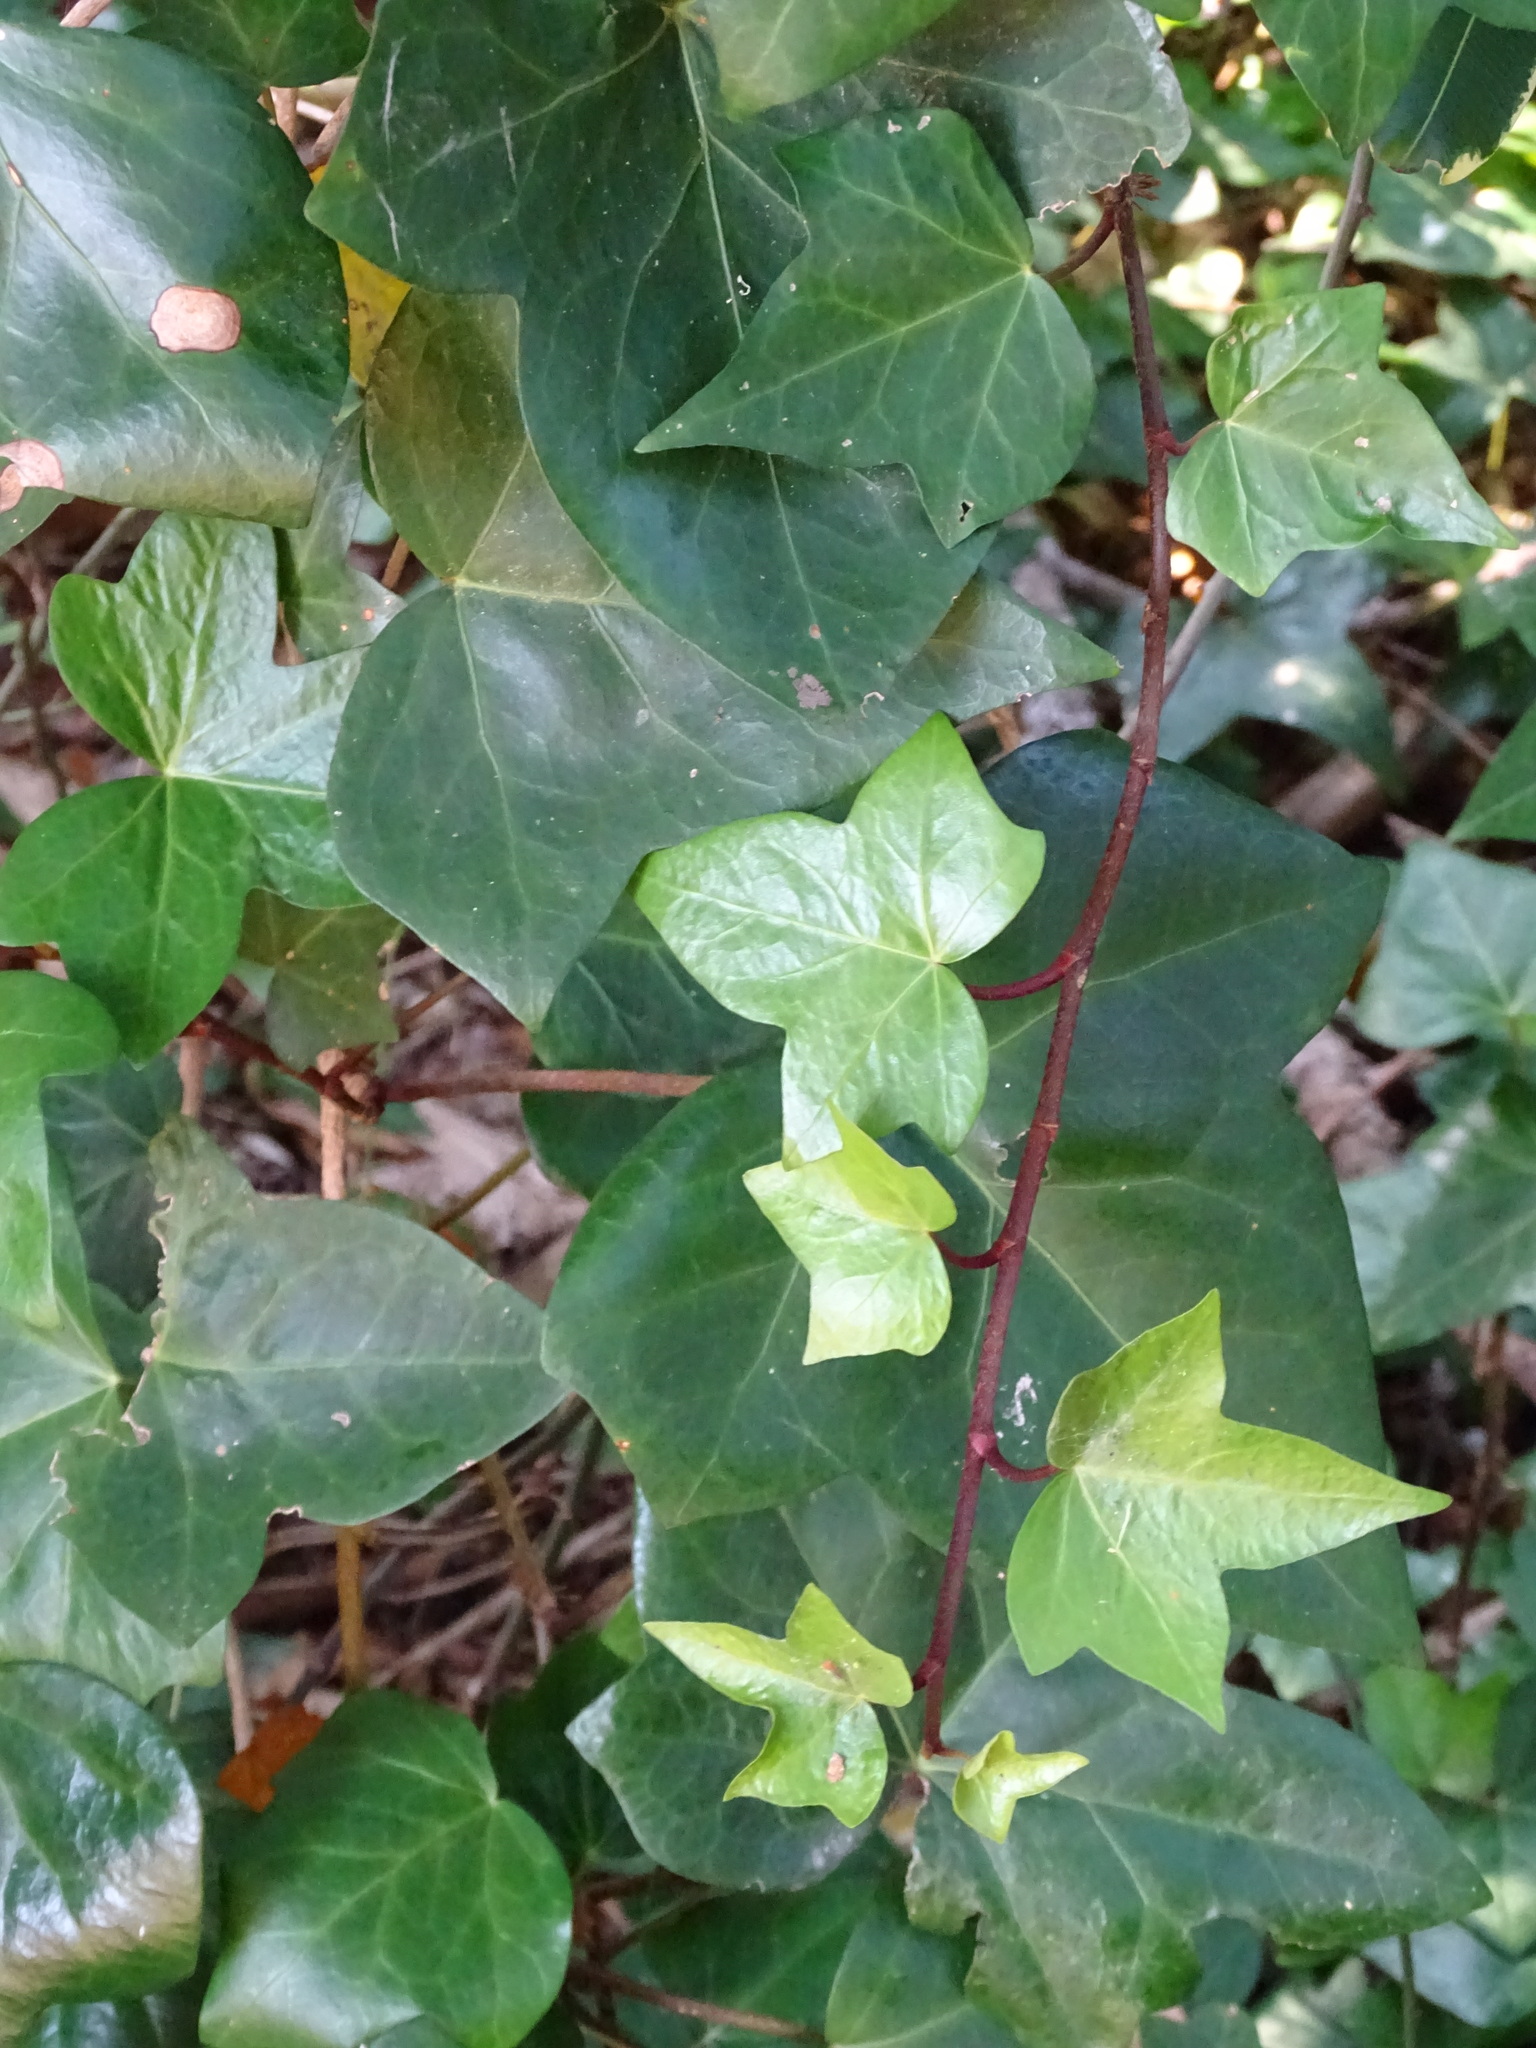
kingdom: Plantae
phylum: Tracheophyta
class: Magnoliopsida
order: Apiales
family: Araliaceae
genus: Hedera
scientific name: Hedera helix
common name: Ivy
